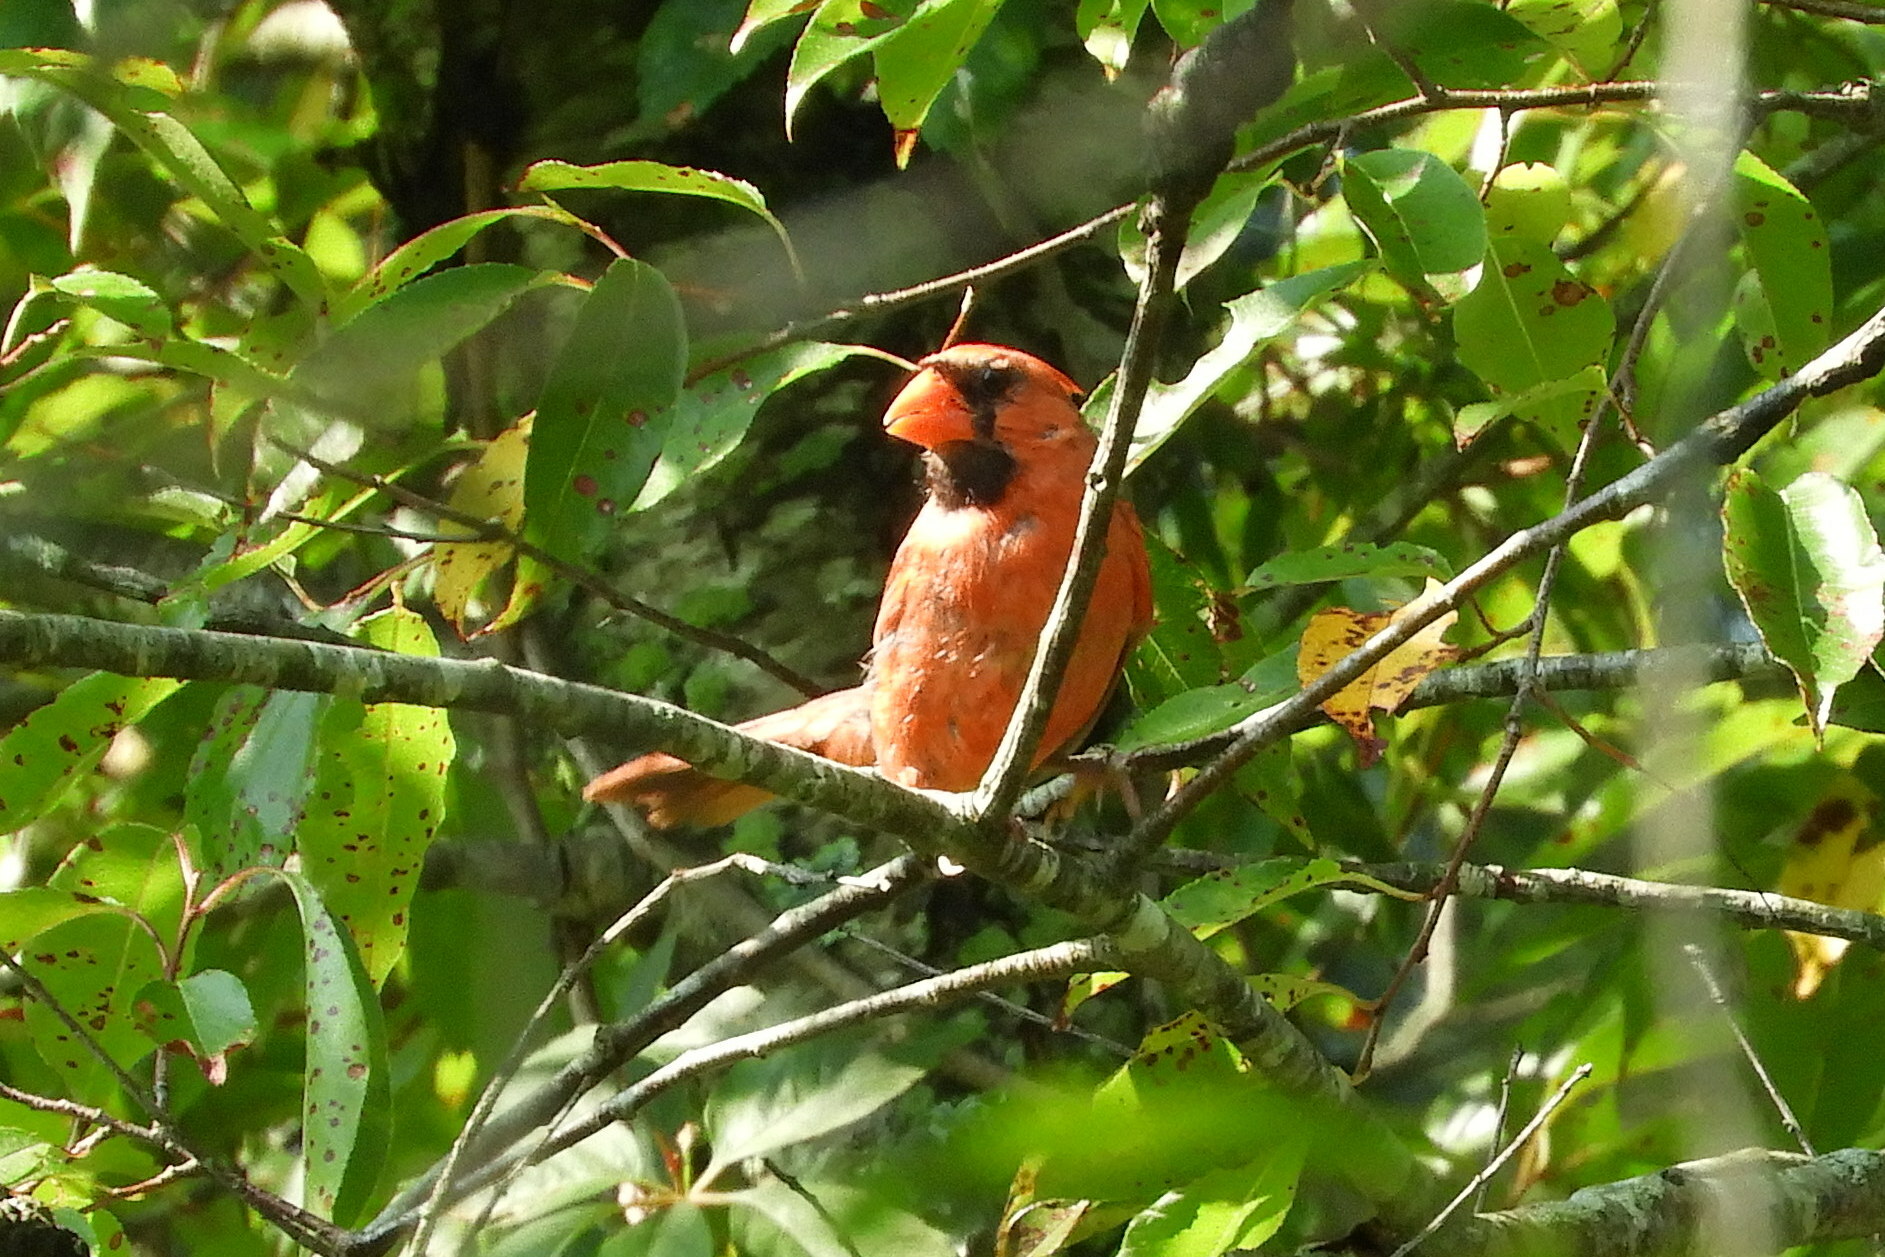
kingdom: Animalia
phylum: Chordata
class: Aves
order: Passeriformes
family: Cardinalidae
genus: Cardinalis
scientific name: Cardinalis cardinalis
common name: Northern cardinal
